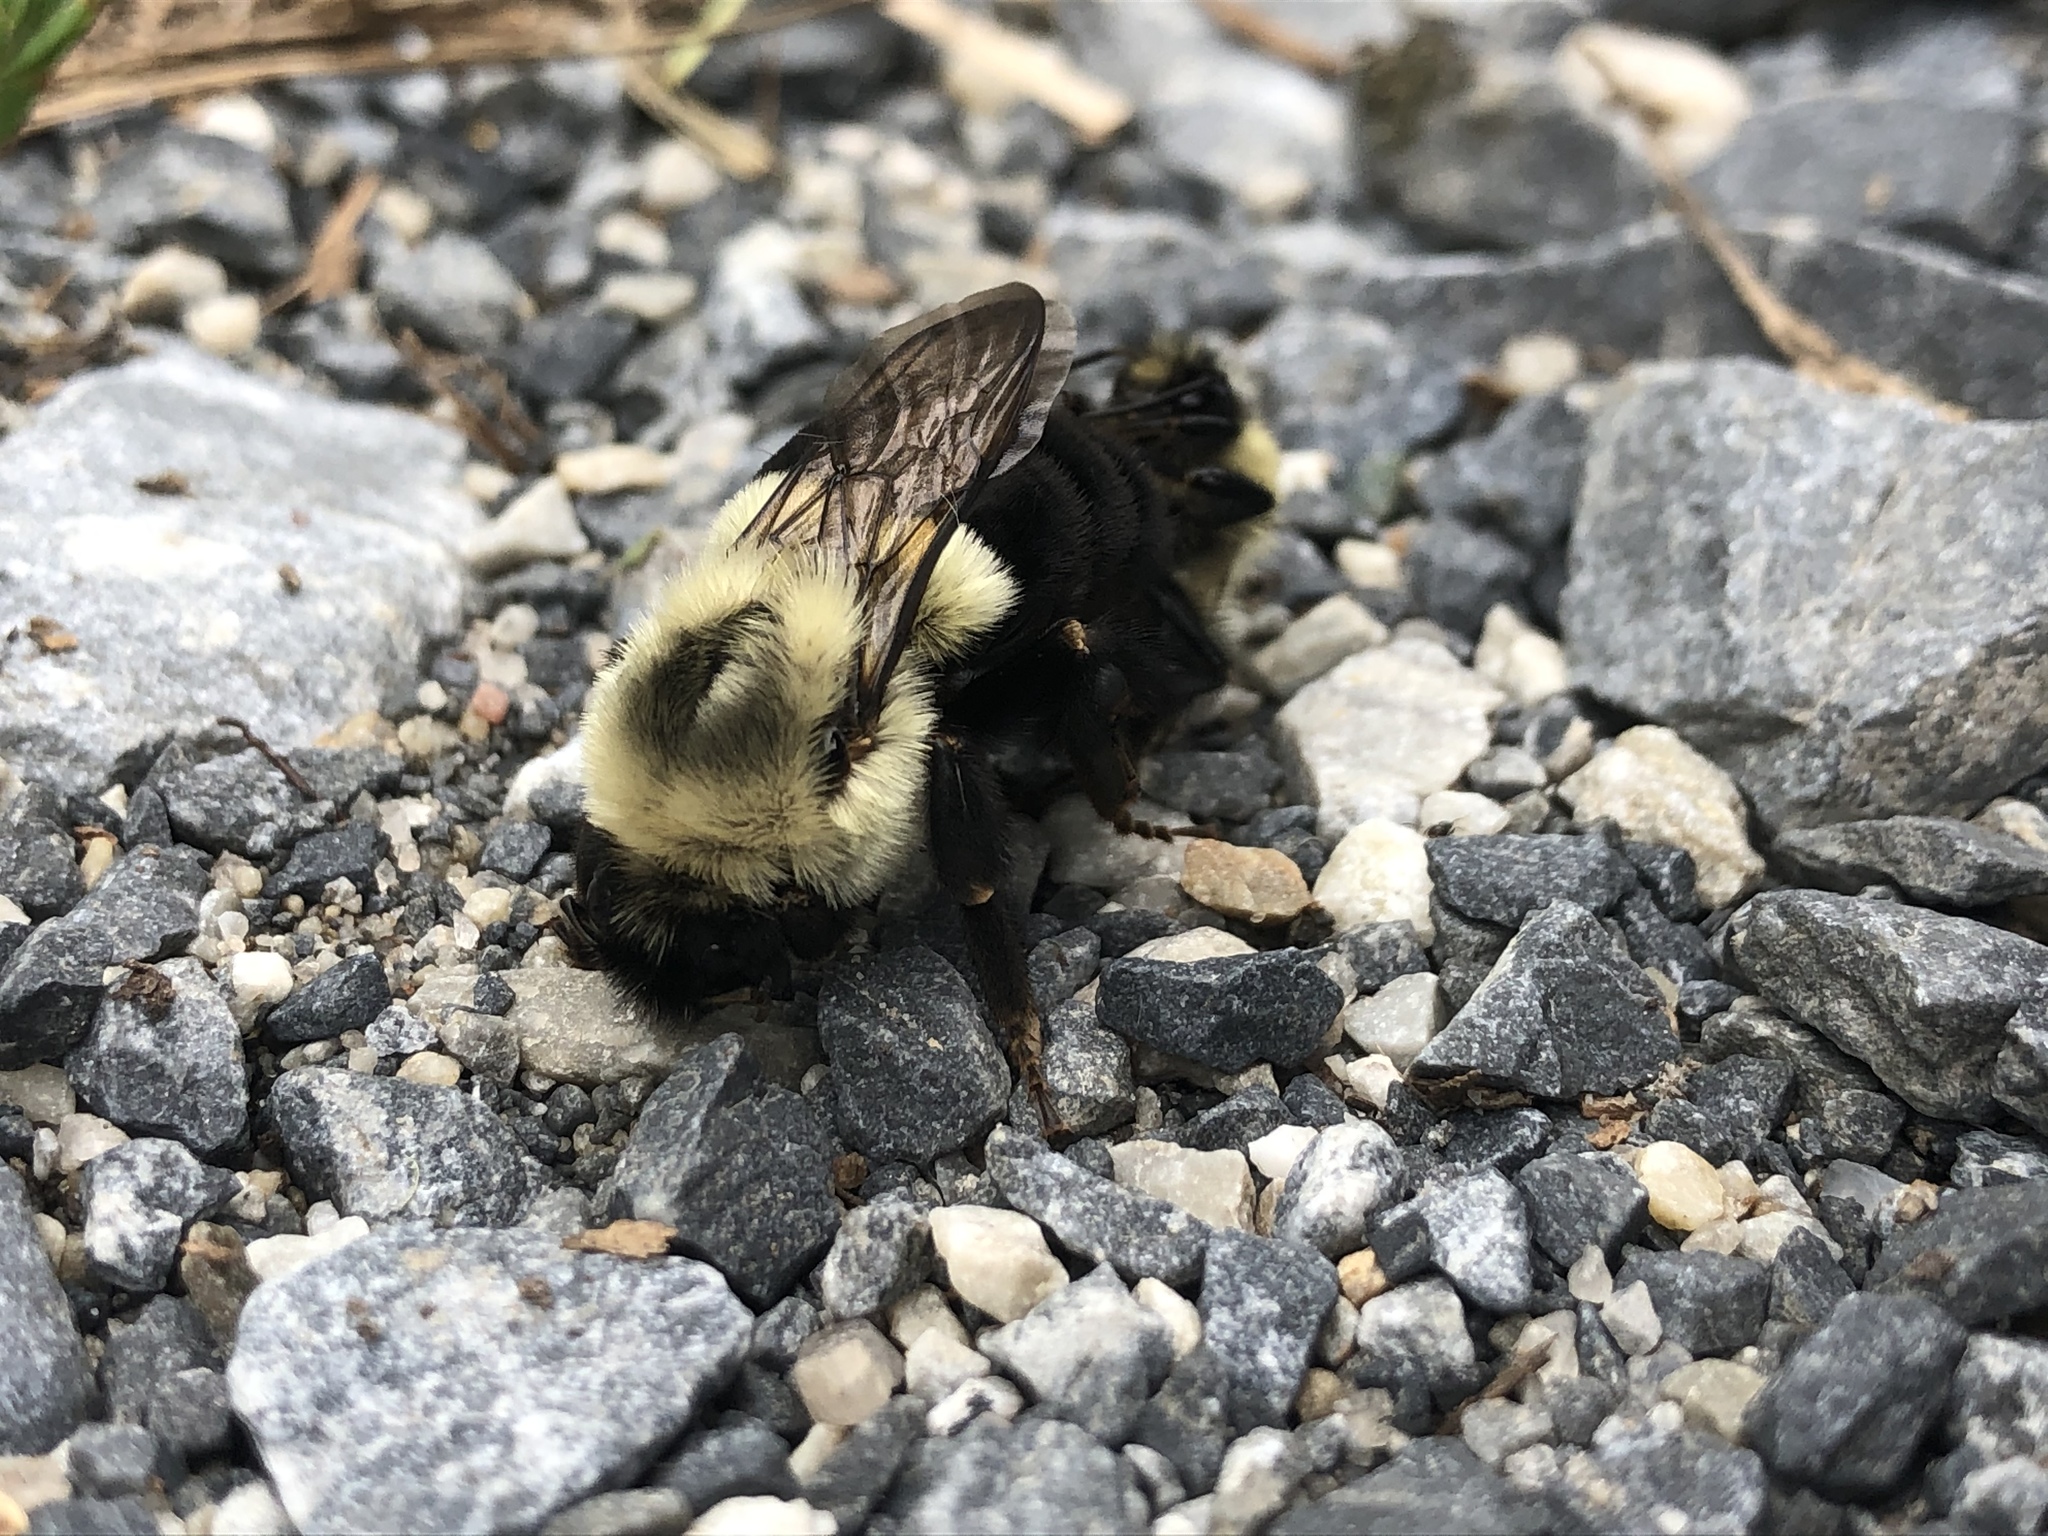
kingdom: Animalia
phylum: Arthropoda
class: Insecta
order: Hymenoptera
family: Apidae
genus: Bombus
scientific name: Bombus impatiens
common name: Common eastern bumble bee
